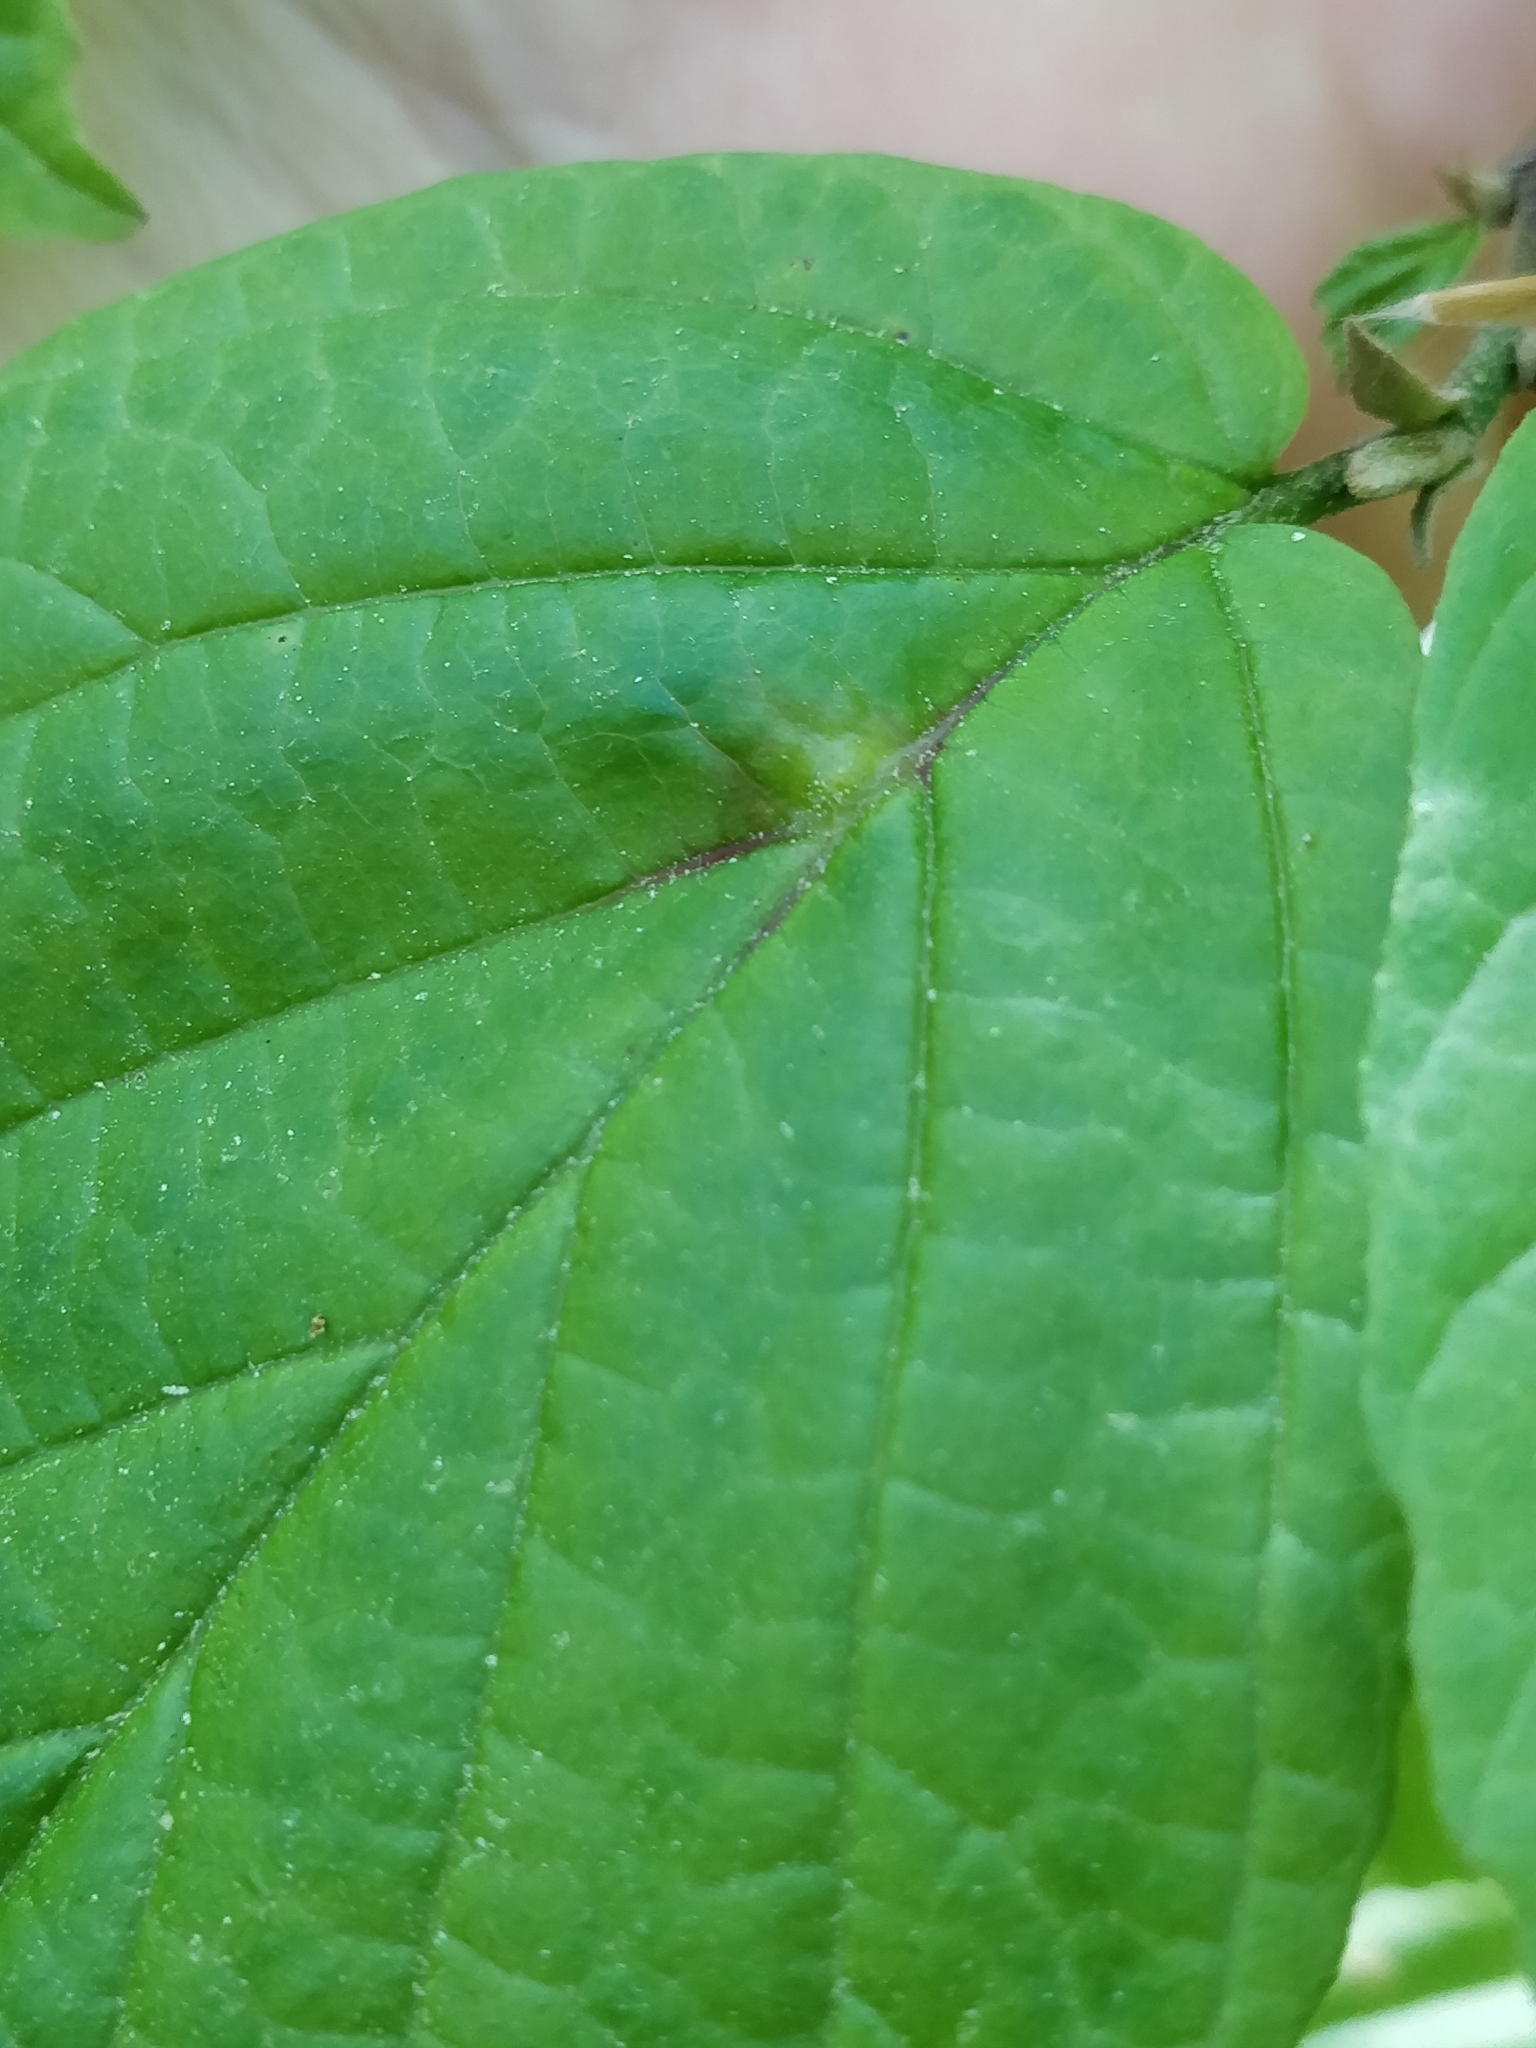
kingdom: Animalia
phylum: Arthropoda
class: Insecta
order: Hemiptera
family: Aphididae
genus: Hormaphis
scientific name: Hormaphis hamamelidis
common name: Witch-hazel cone gall aphid
